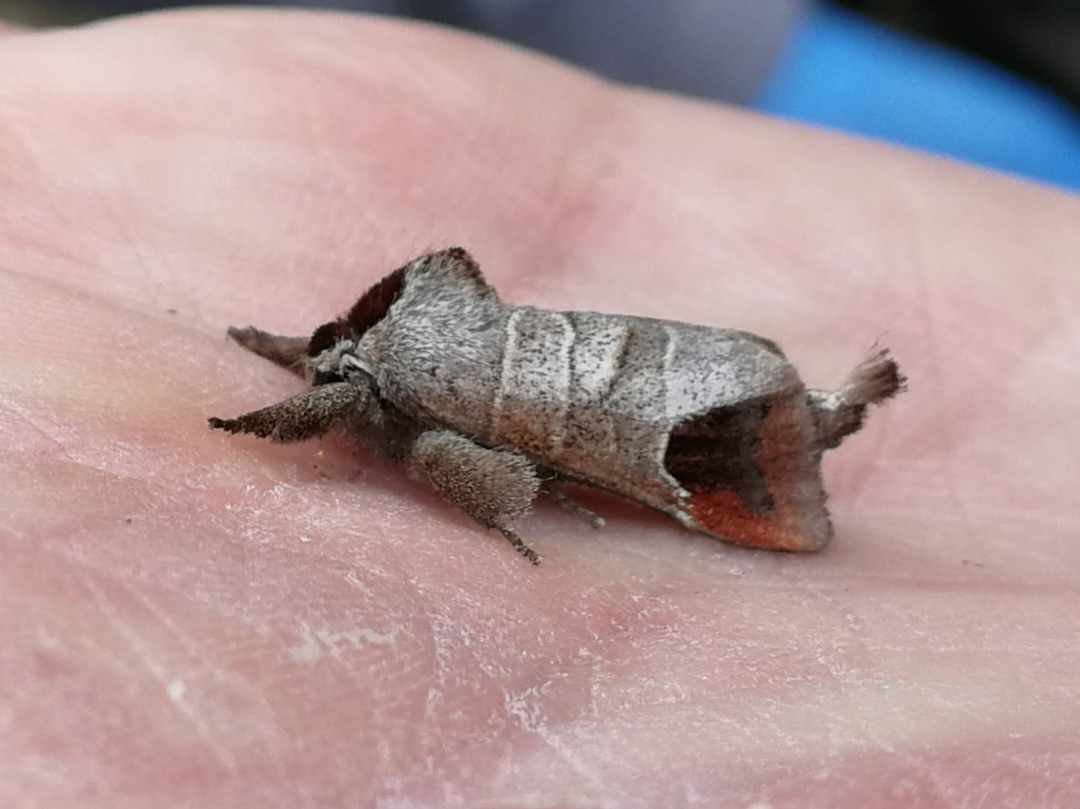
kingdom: Animalia
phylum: Arthropoda
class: Insecta
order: Lepidoptera
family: Notodontidae
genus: Clostera
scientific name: Clostera curtula
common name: Chocolate-tip
